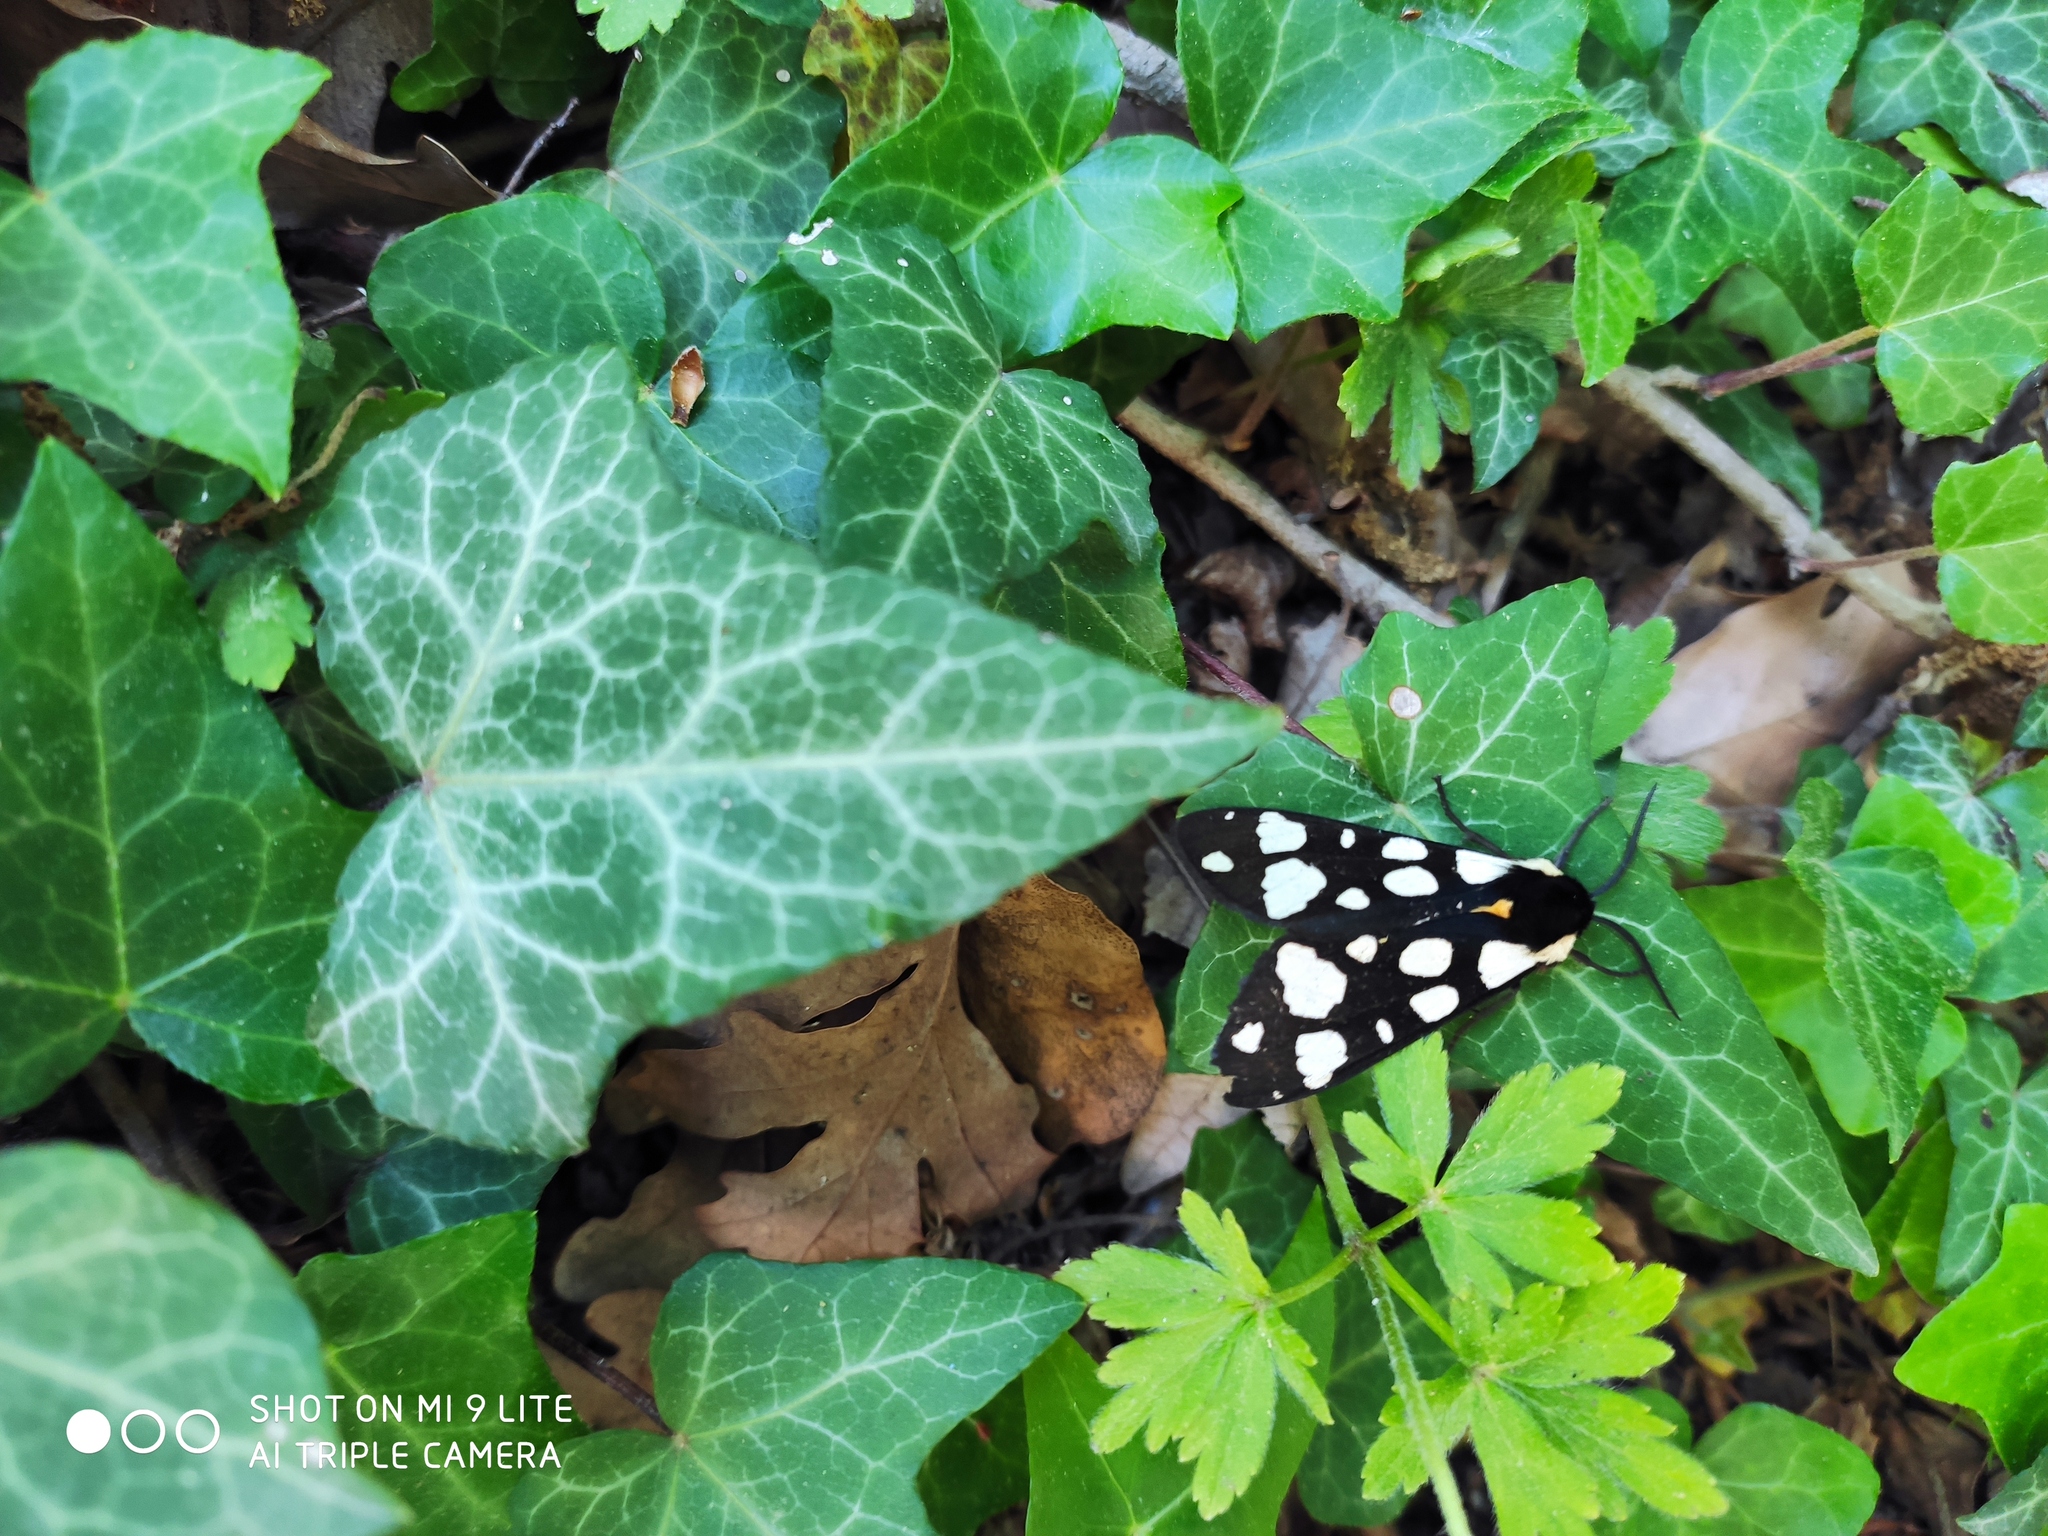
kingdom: Animalia
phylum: Arthropoda
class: Insecta
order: Lepidoptera
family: Erebidae
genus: Epicallia
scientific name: Epicallia villica
